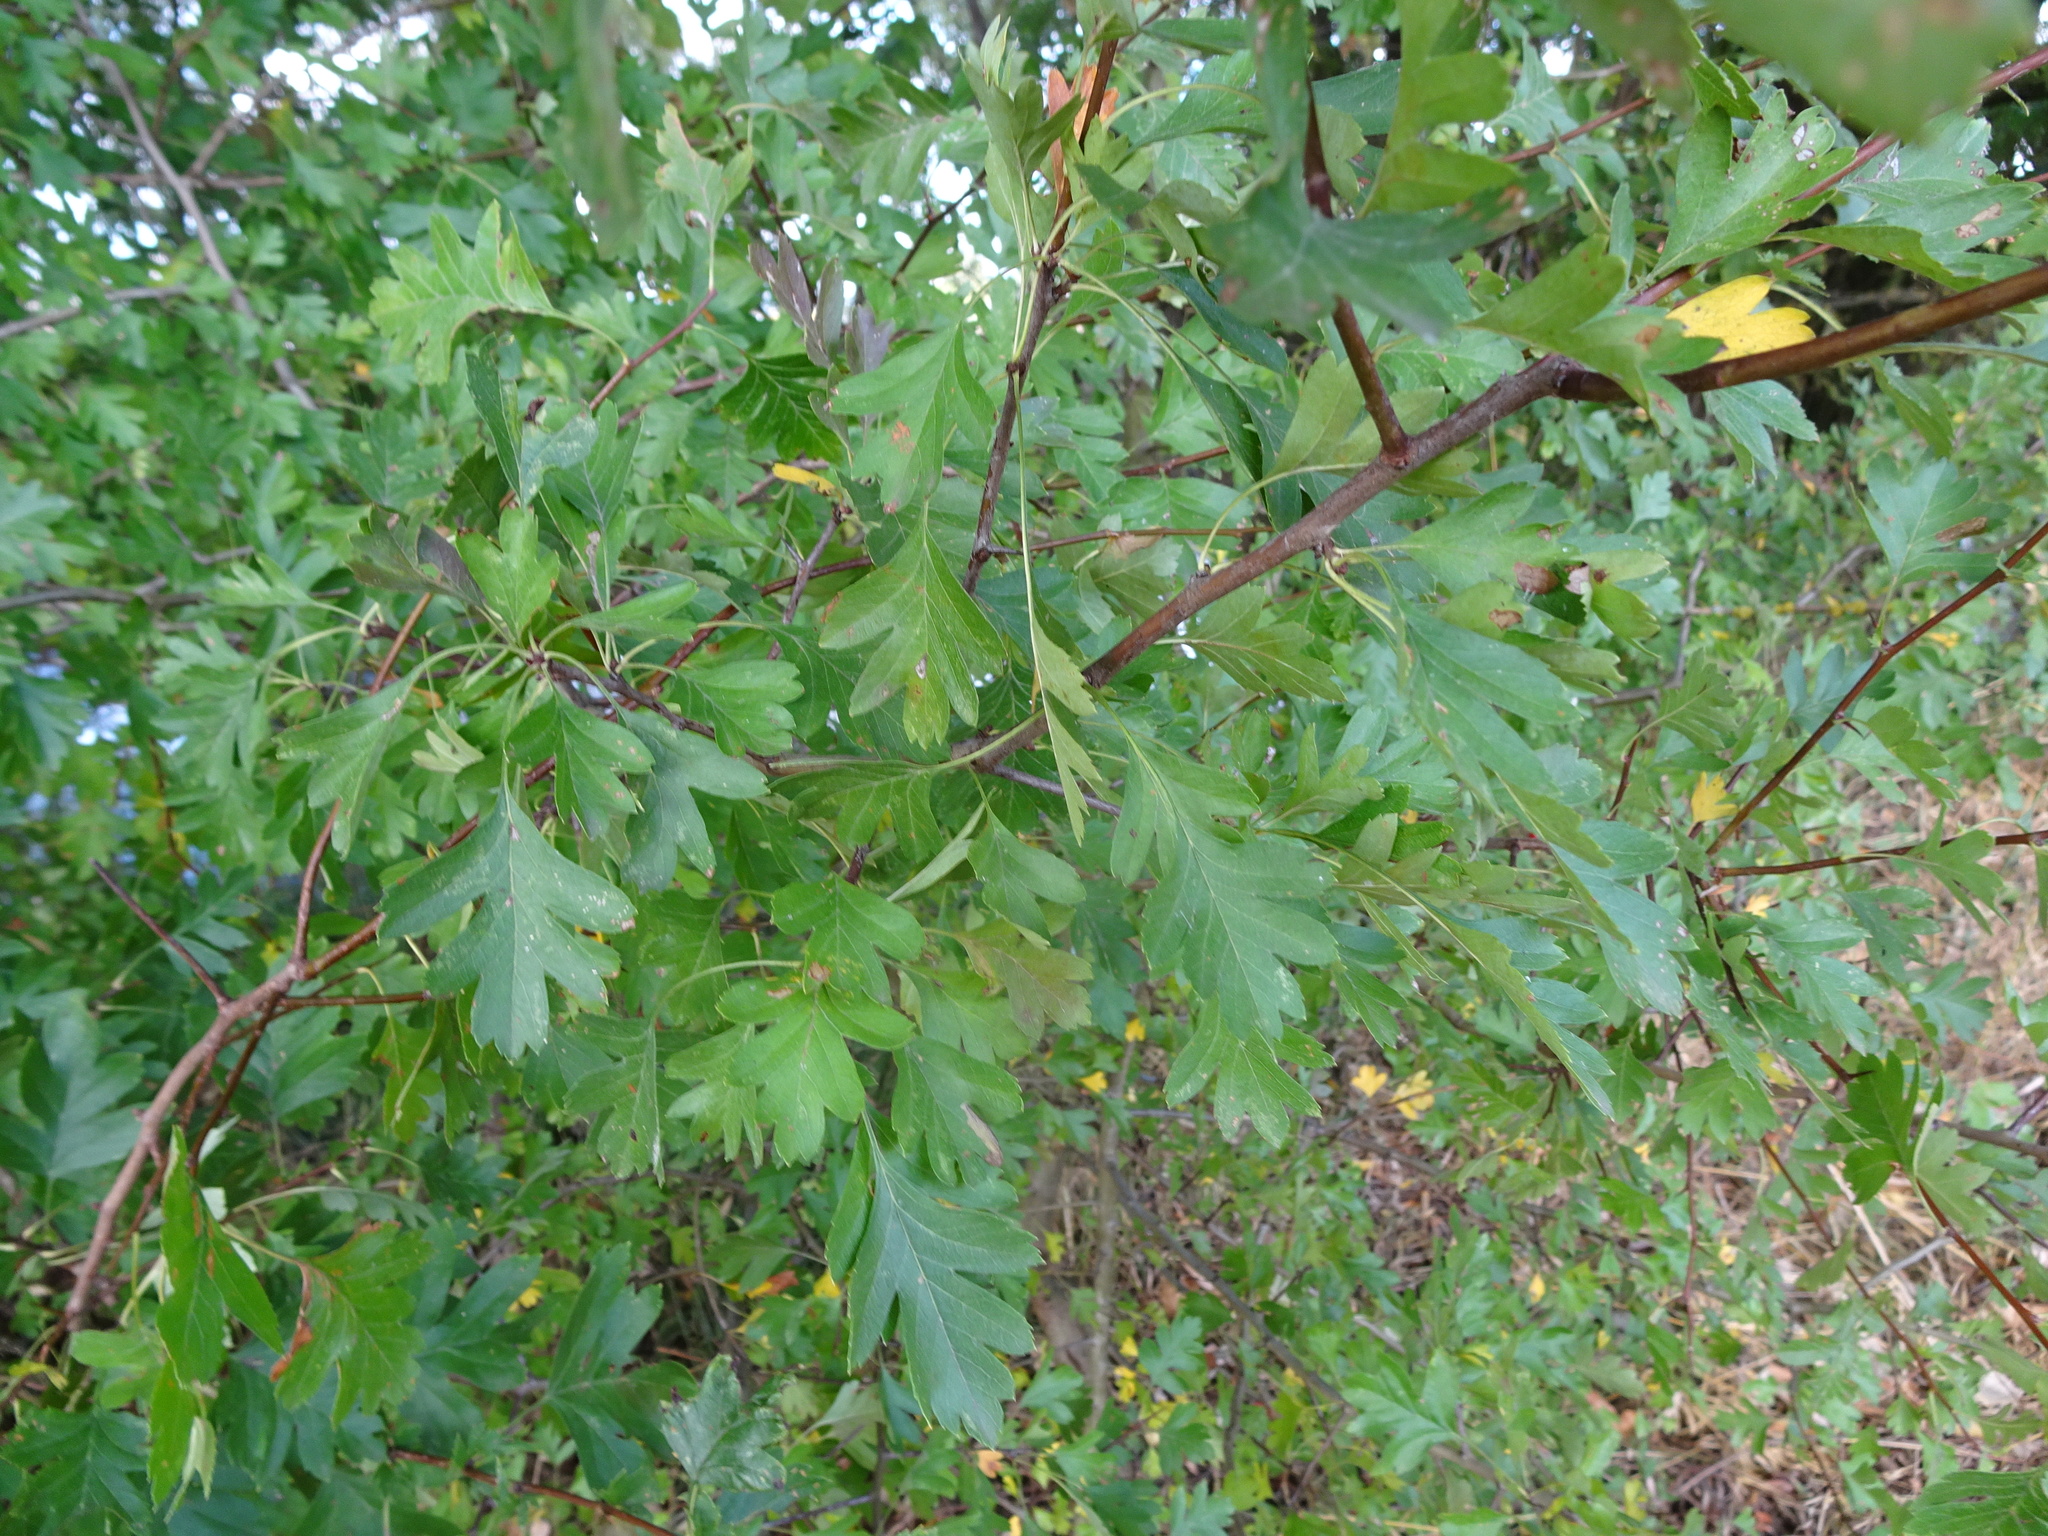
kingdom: Plantae
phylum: Tracheophyta
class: Magnoliopsida
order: Rosales
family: Rosaceae
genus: Crataegus
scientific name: Crataegus monogyna
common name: Hawthorn
